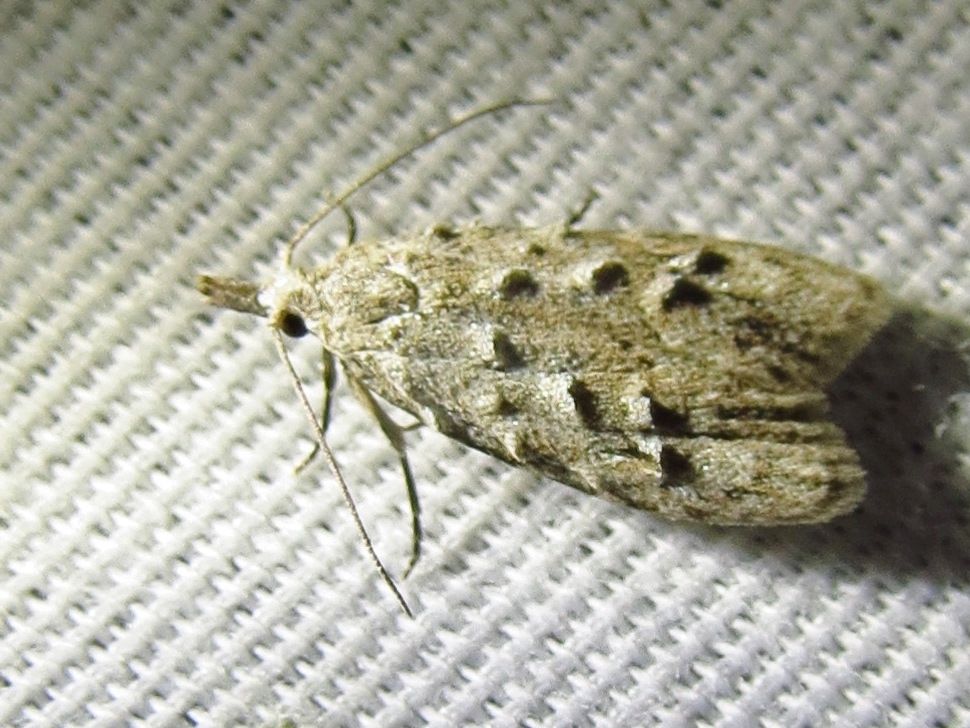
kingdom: Animalia
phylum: Arthropoda
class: Insecta
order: Lepidoptera
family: Carposinidae
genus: Carposina
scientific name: Carposina ottawana
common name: American peach fruit moth
